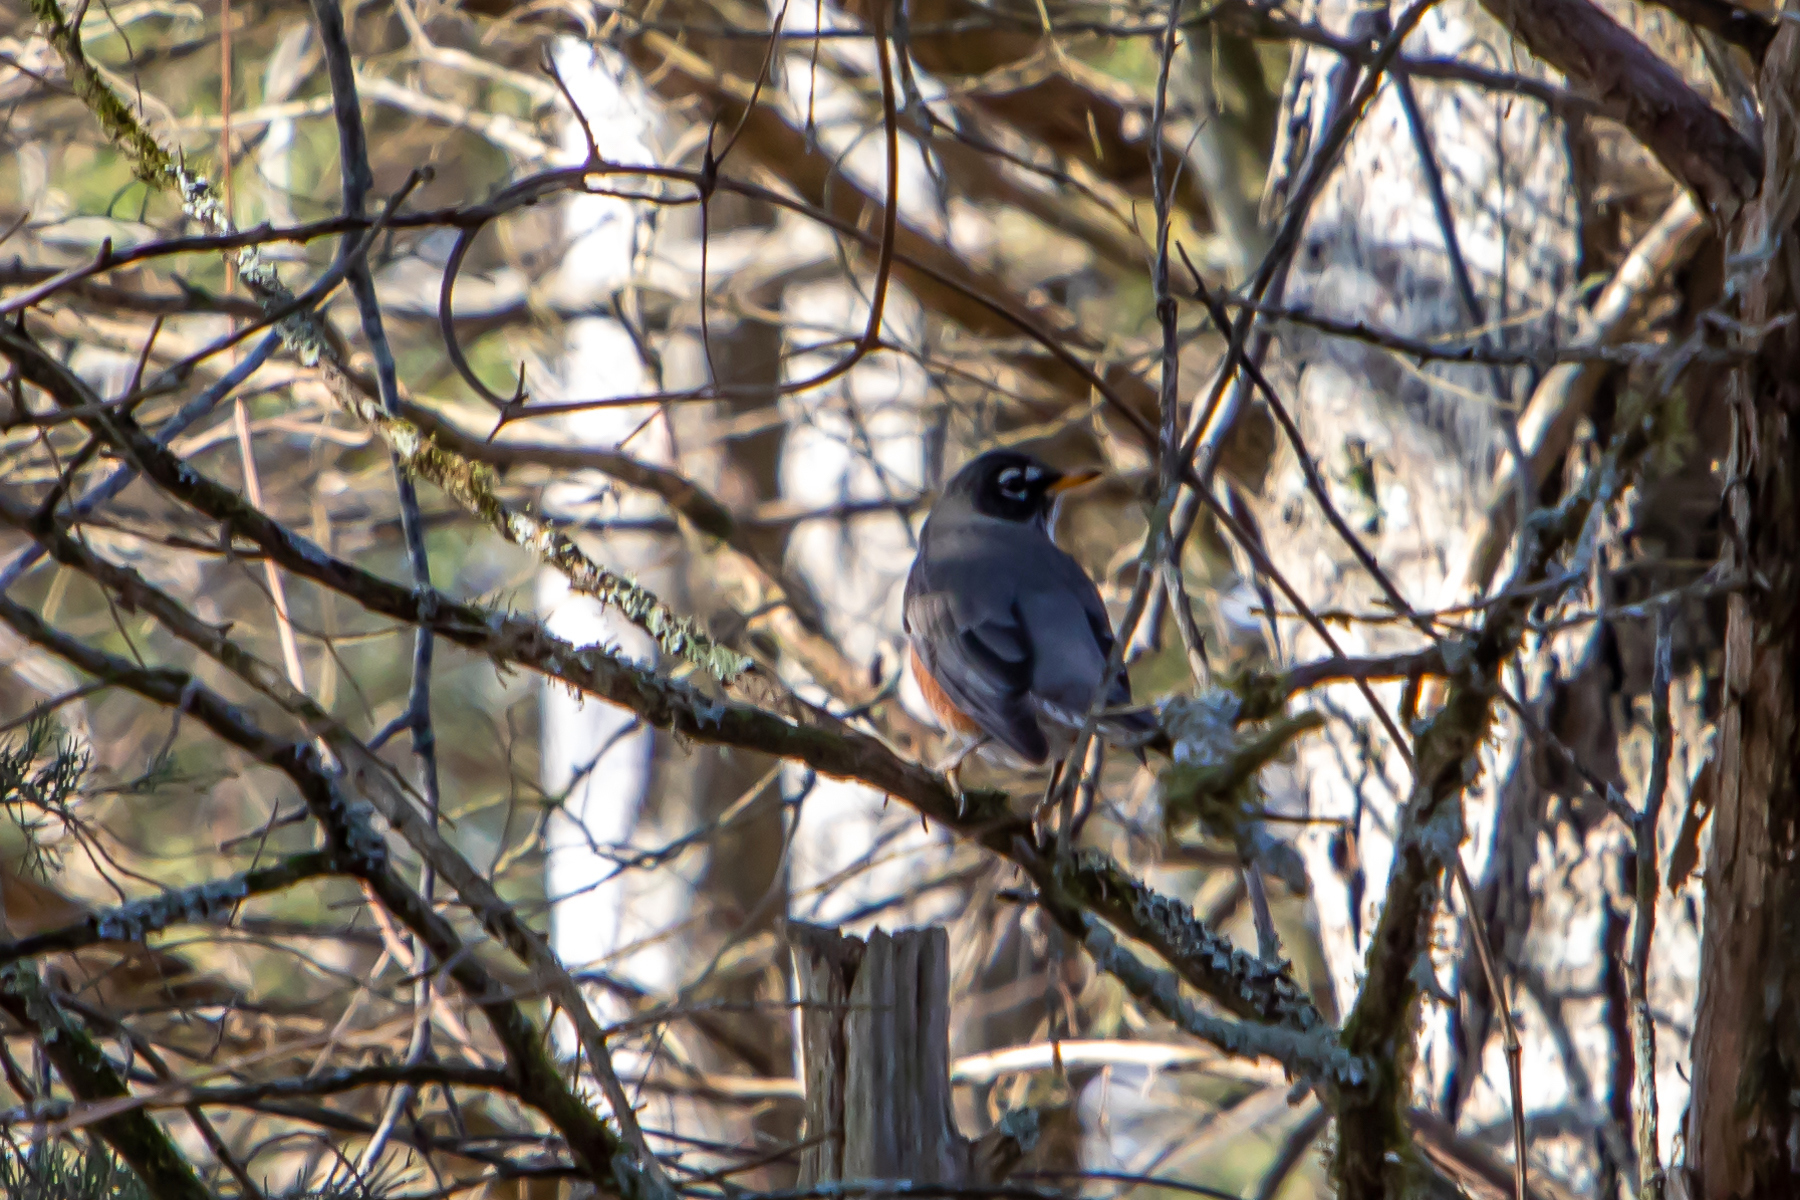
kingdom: Animalia
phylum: Chordata
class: Aves
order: Passeriformes
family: Turdidae
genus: Turdus
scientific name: Turdus migratorius
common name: American robin
